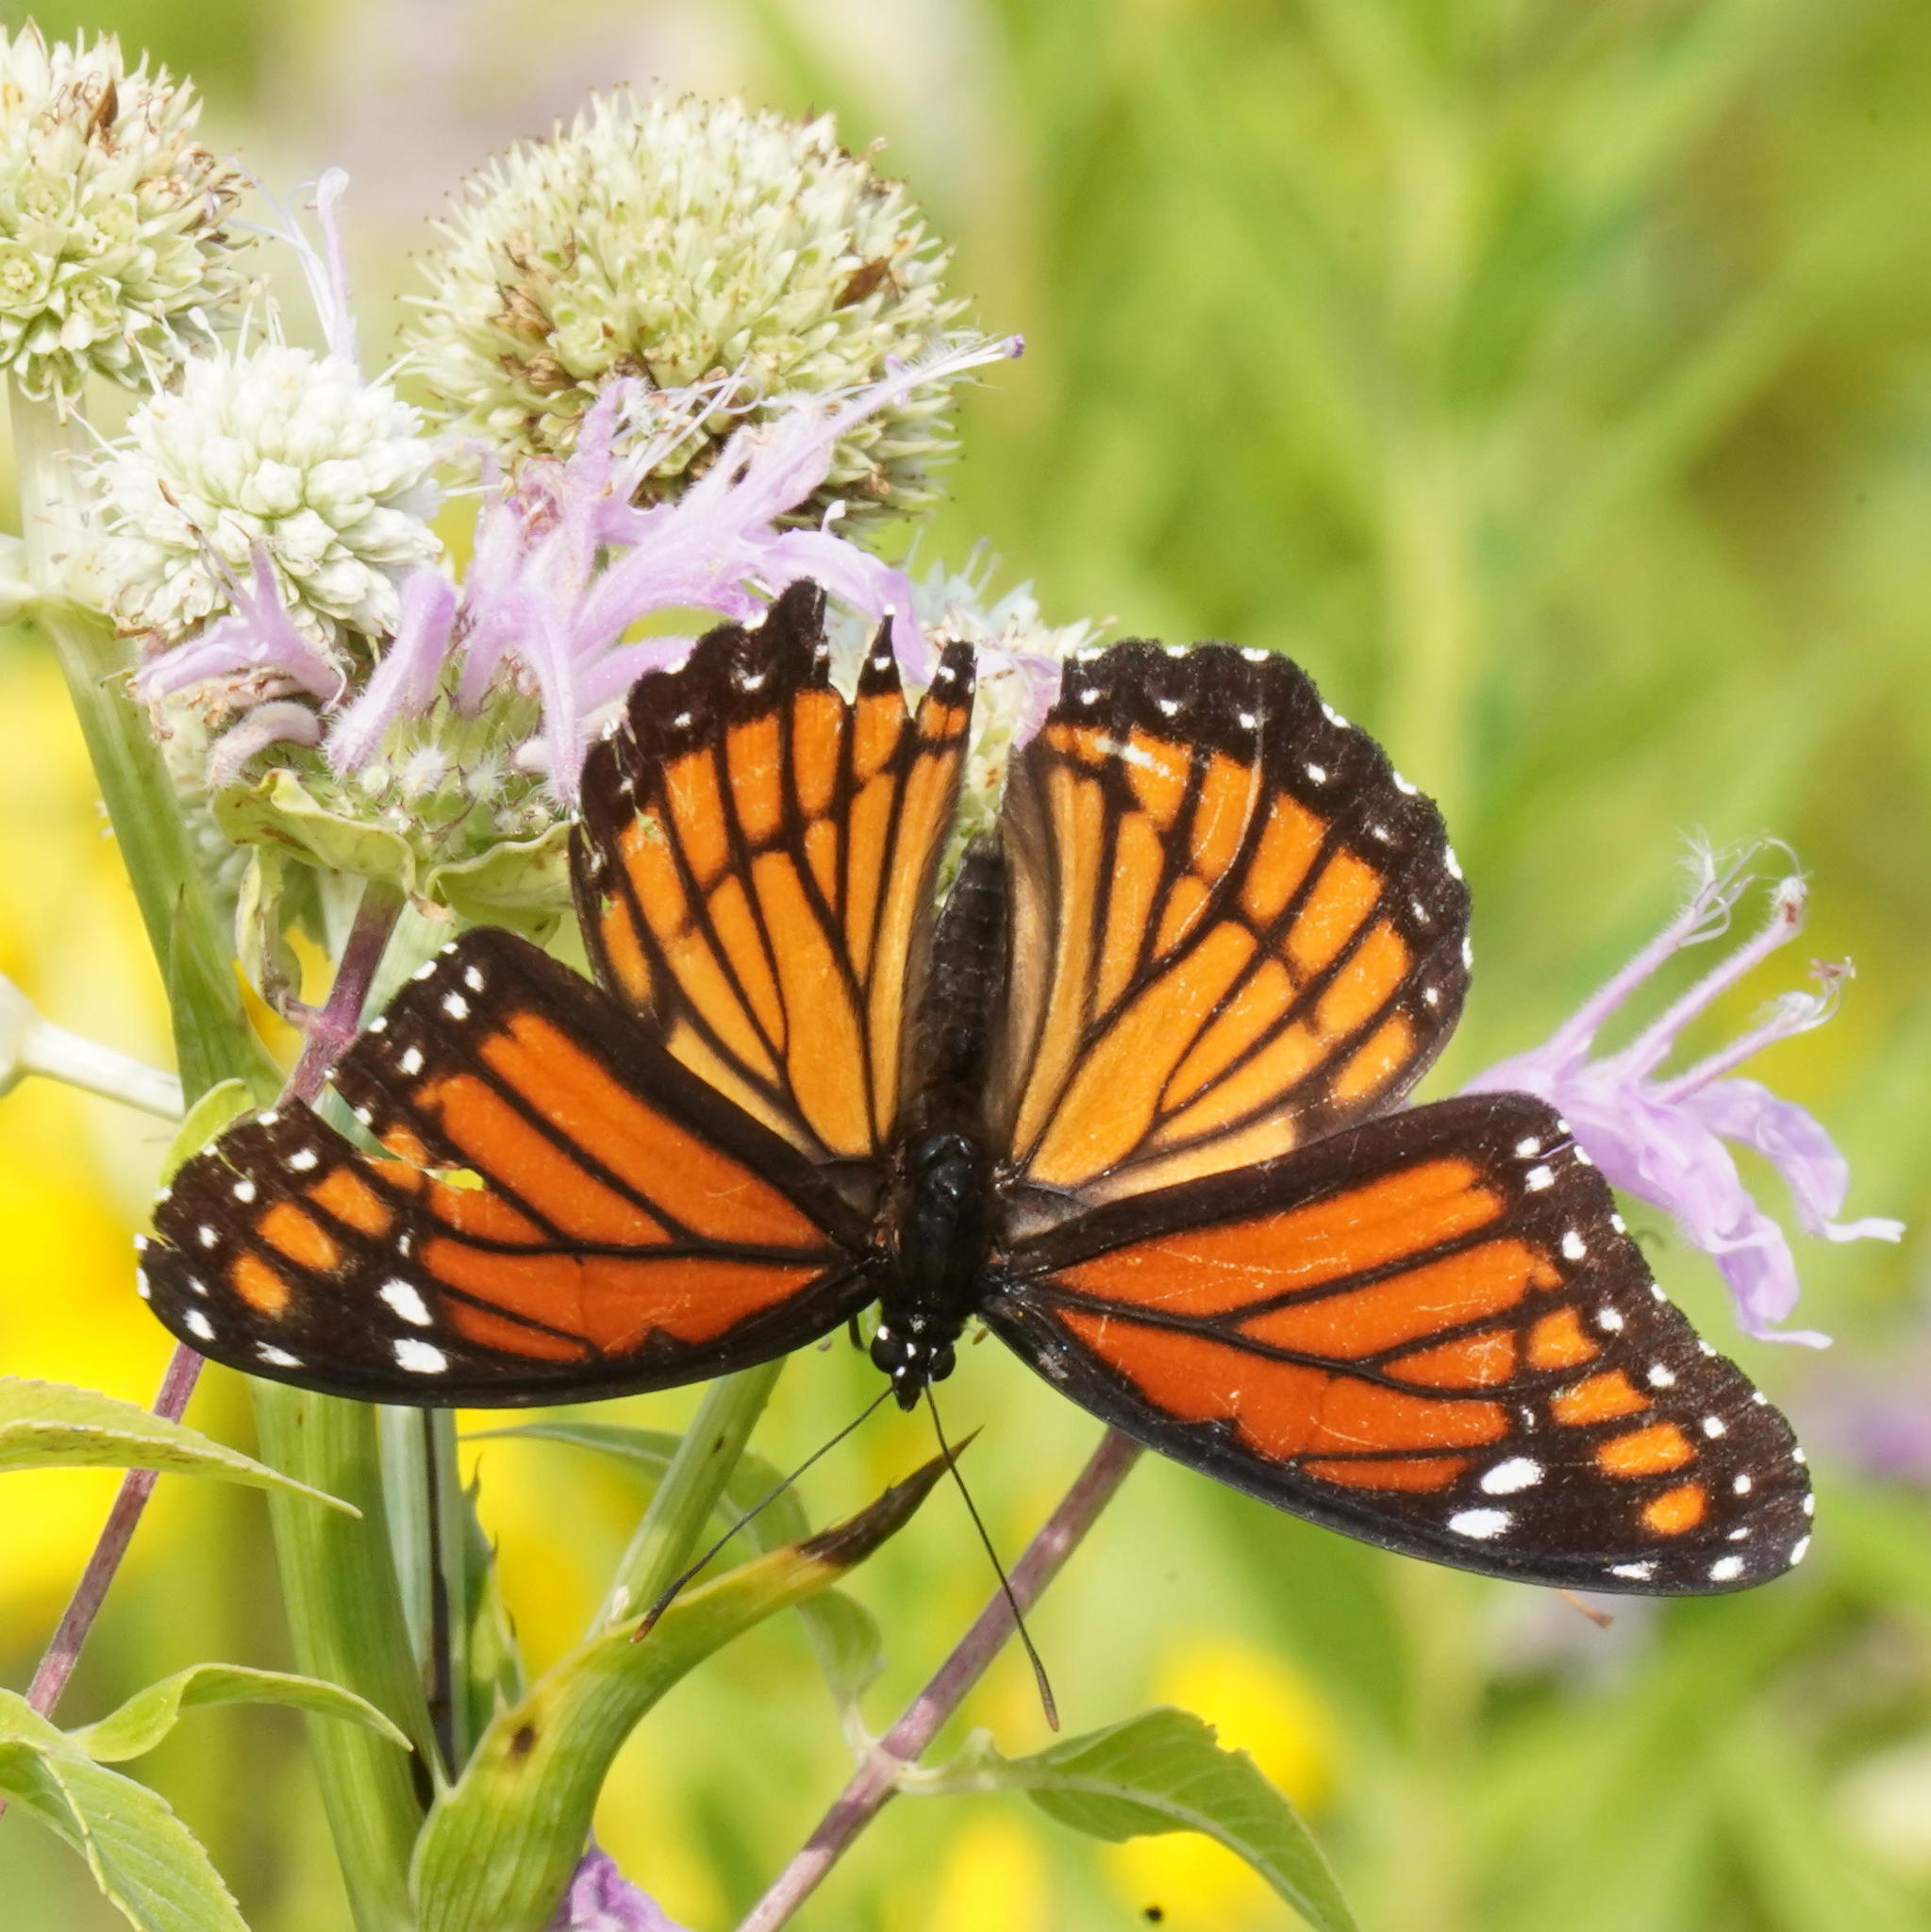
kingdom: Animalia
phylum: Arthropoda
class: Insecta
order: Lepidoptera
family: Nymphalidae
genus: Limenitis
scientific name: Limenitis archippus
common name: Viceroy
